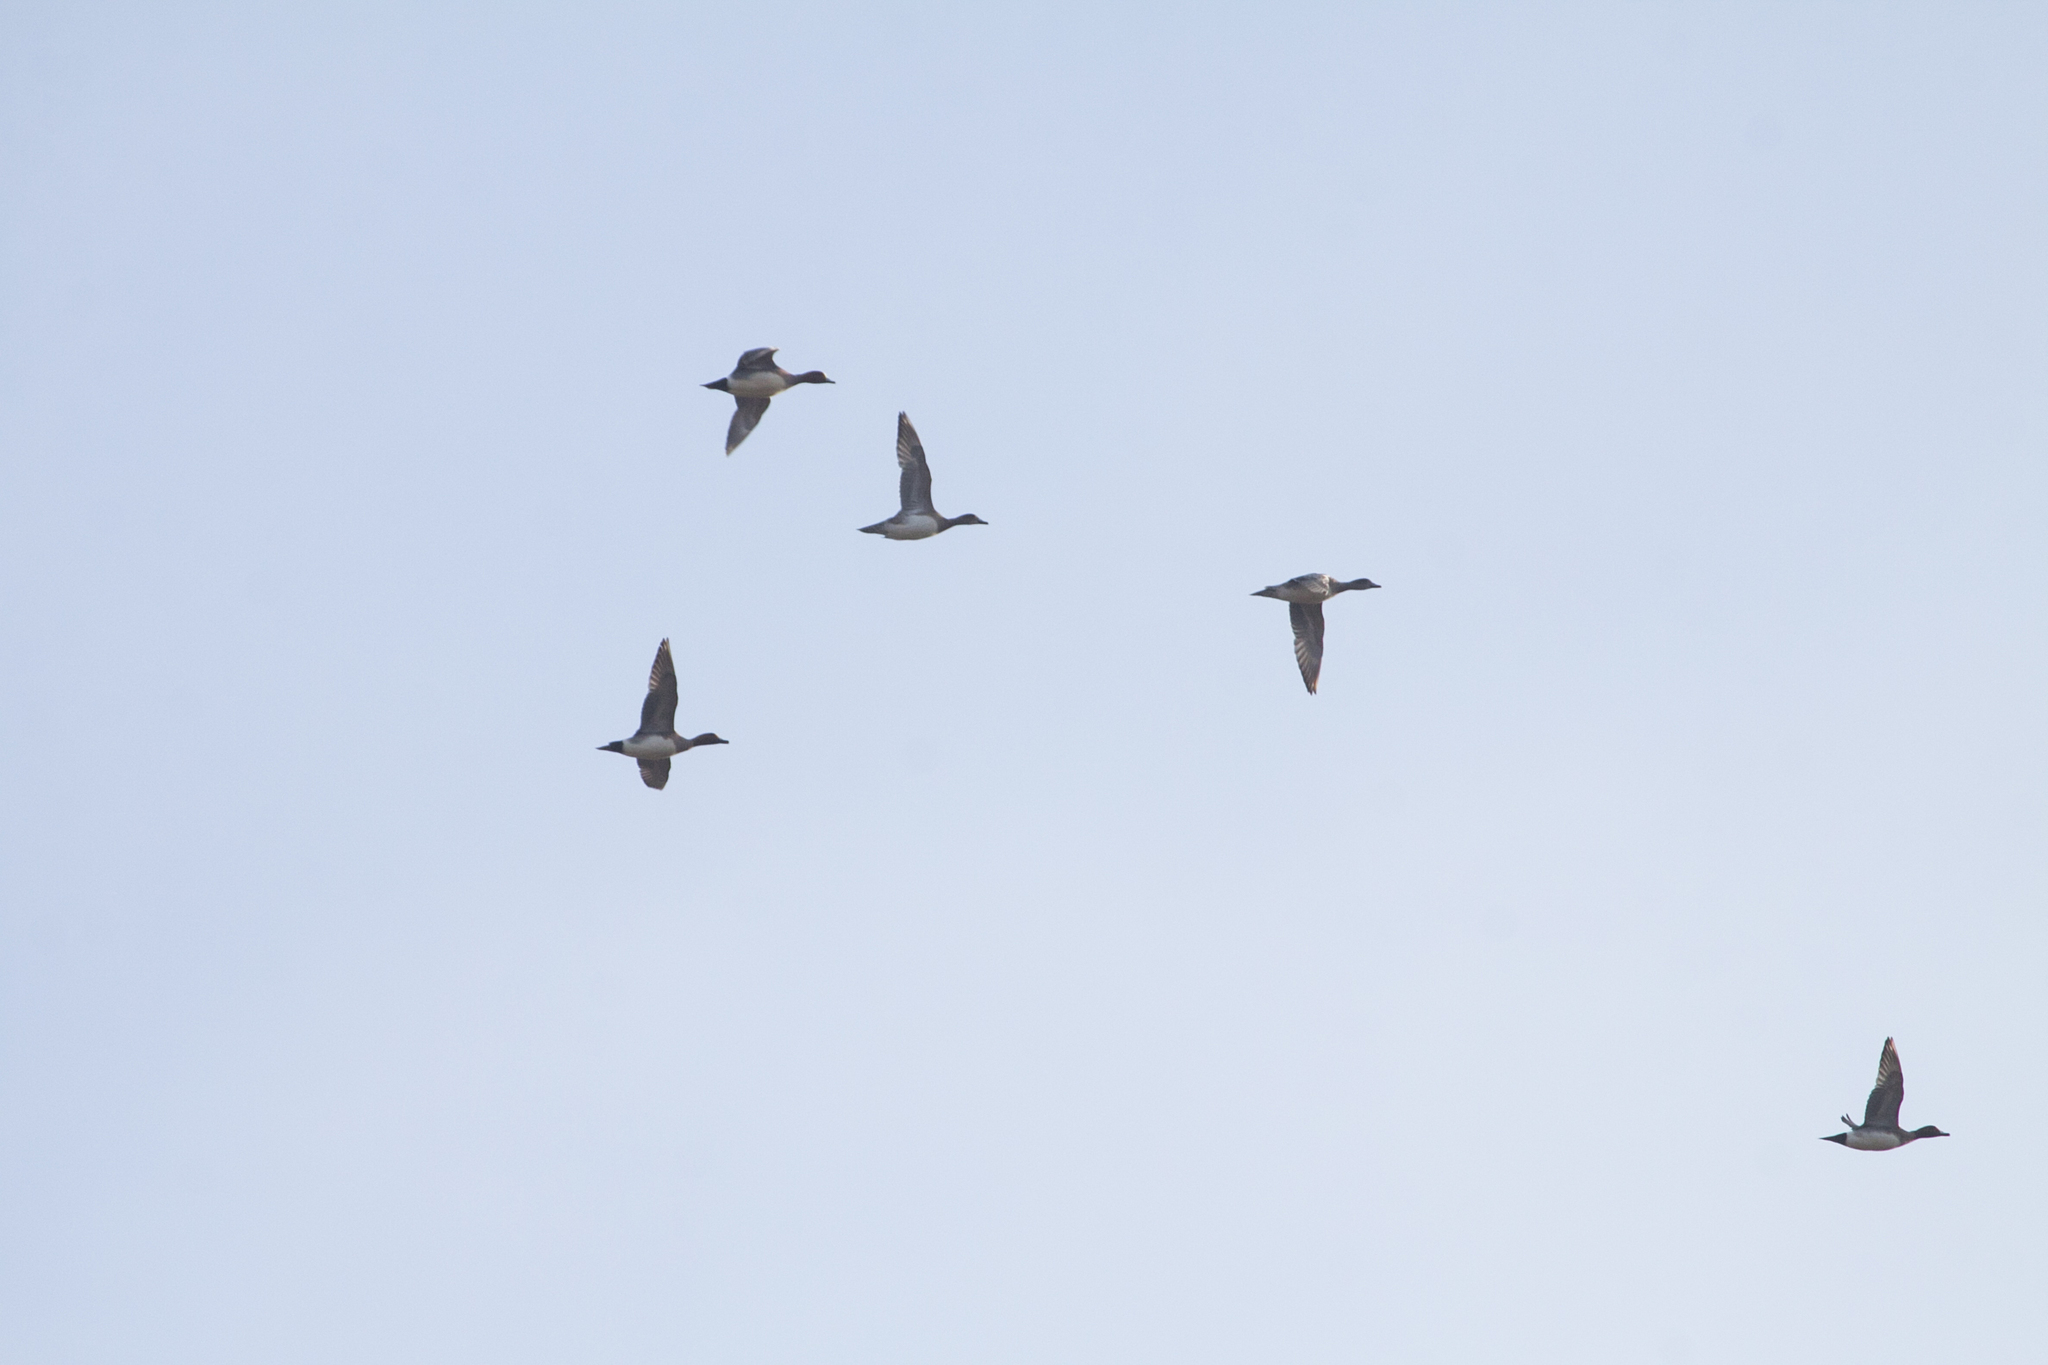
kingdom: Animalia
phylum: Chordata
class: Aves
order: Anseriformes
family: Anatidae
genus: Mareca
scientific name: Mareca penelope
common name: Eurasian wigeon
